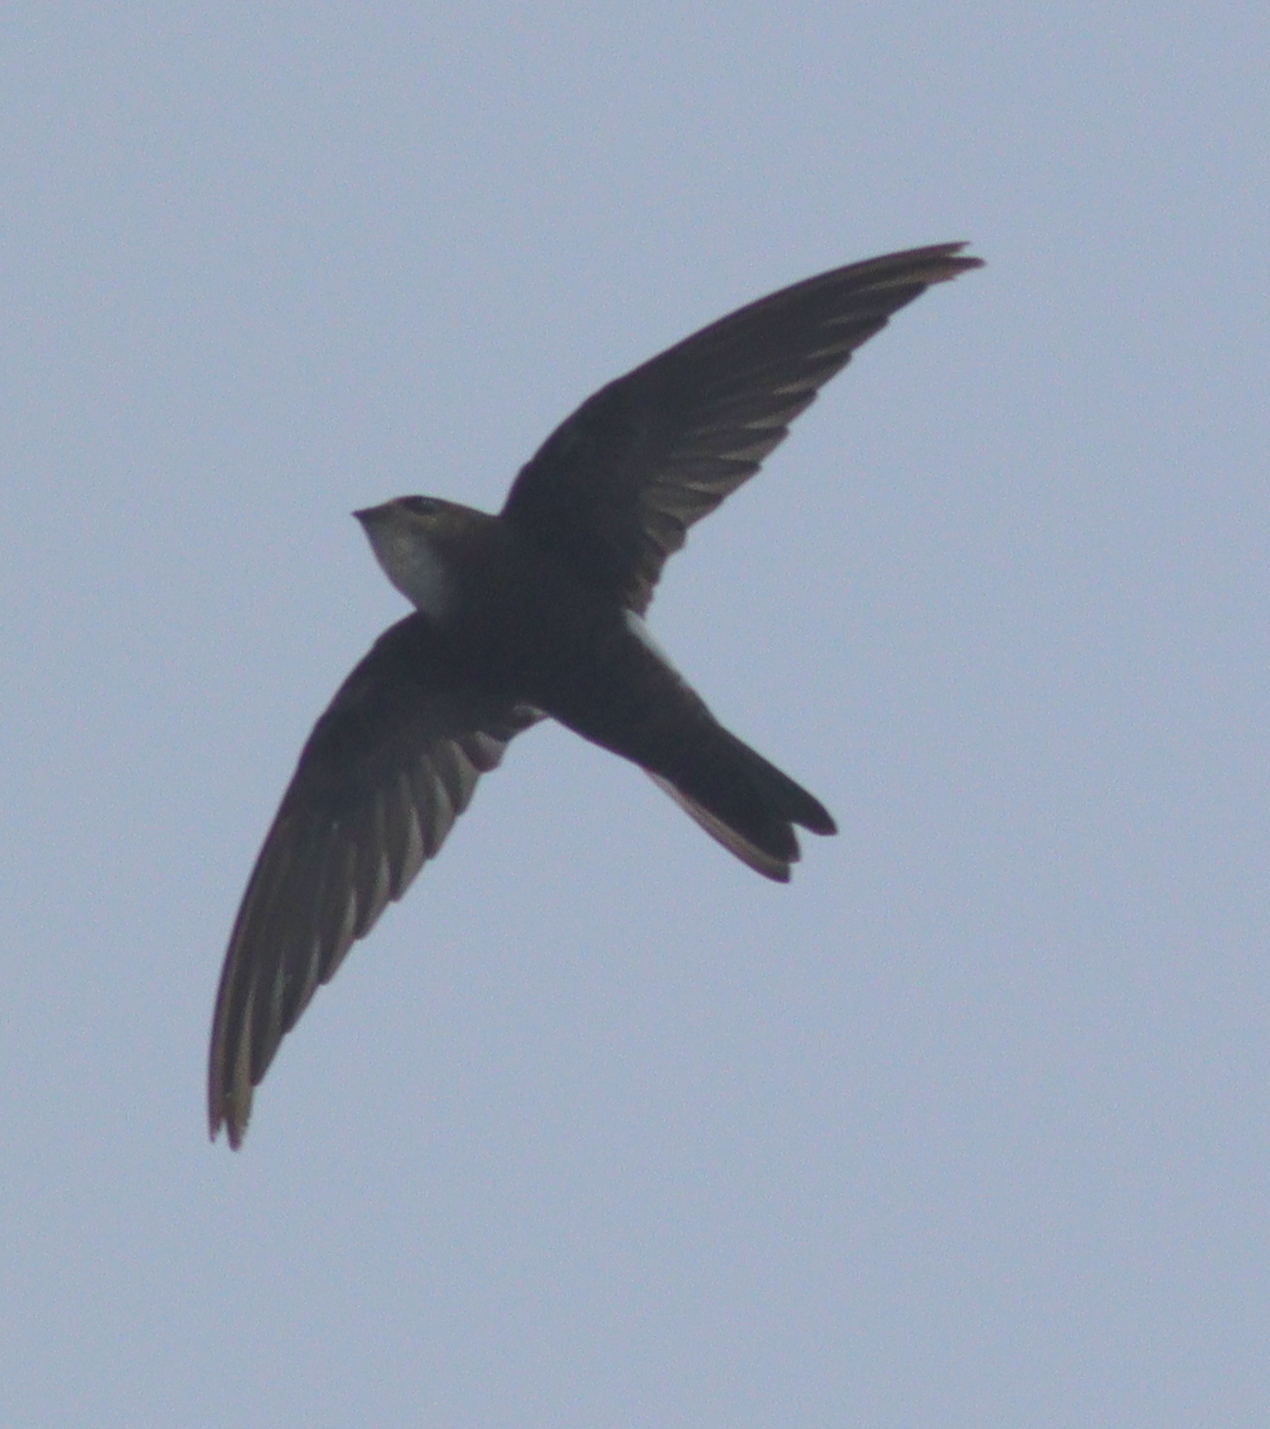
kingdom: Animalia
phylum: Chordata
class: Aves
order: Apodiformes
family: Apodidae
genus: Apus
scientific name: Apus nipalensis
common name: House swift
